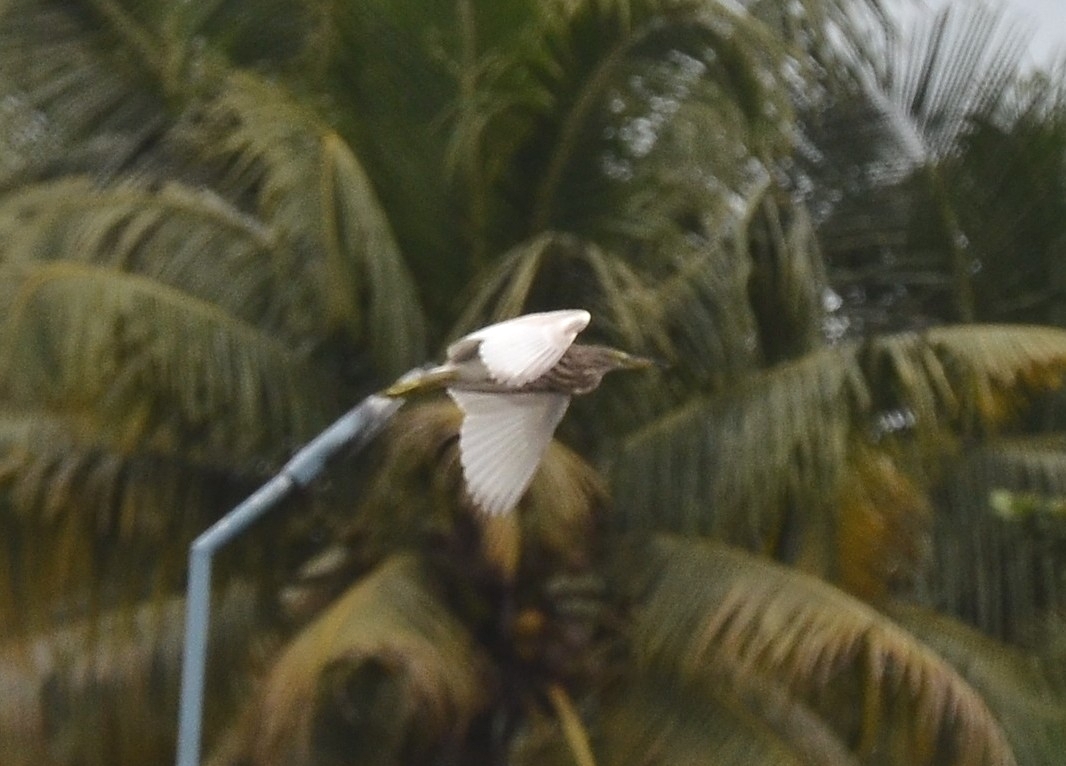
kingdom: Animalia
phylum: Chordata
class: Aves
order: Pelecaniformes
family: Ardeidae
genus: Ardeola
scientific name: Ardeola grayii
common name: Indian pond heron
